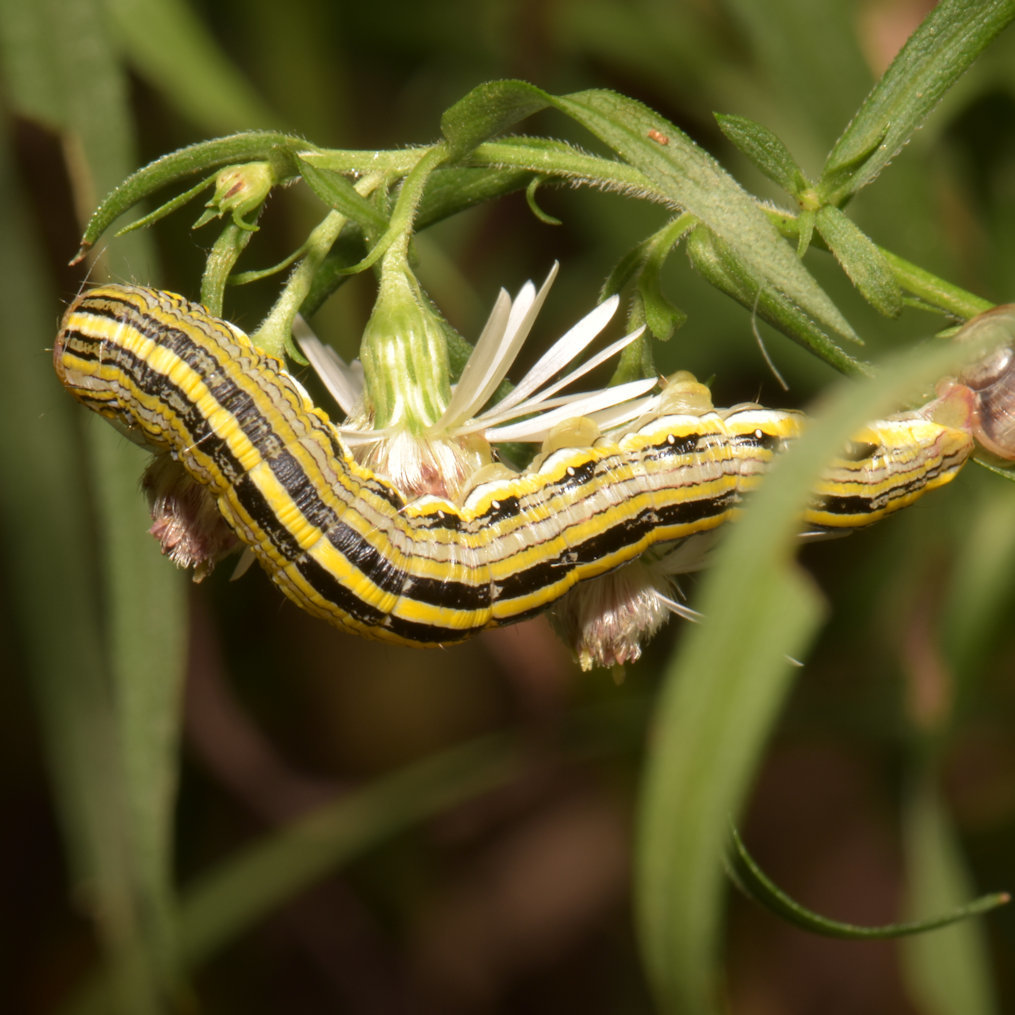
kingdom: Animalia
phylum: Arthropoda
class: Insecta
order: Lepidoptera
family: Noctuidae
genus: Cucullia
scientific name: Cucullia asteroides
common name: Asteroid moth
